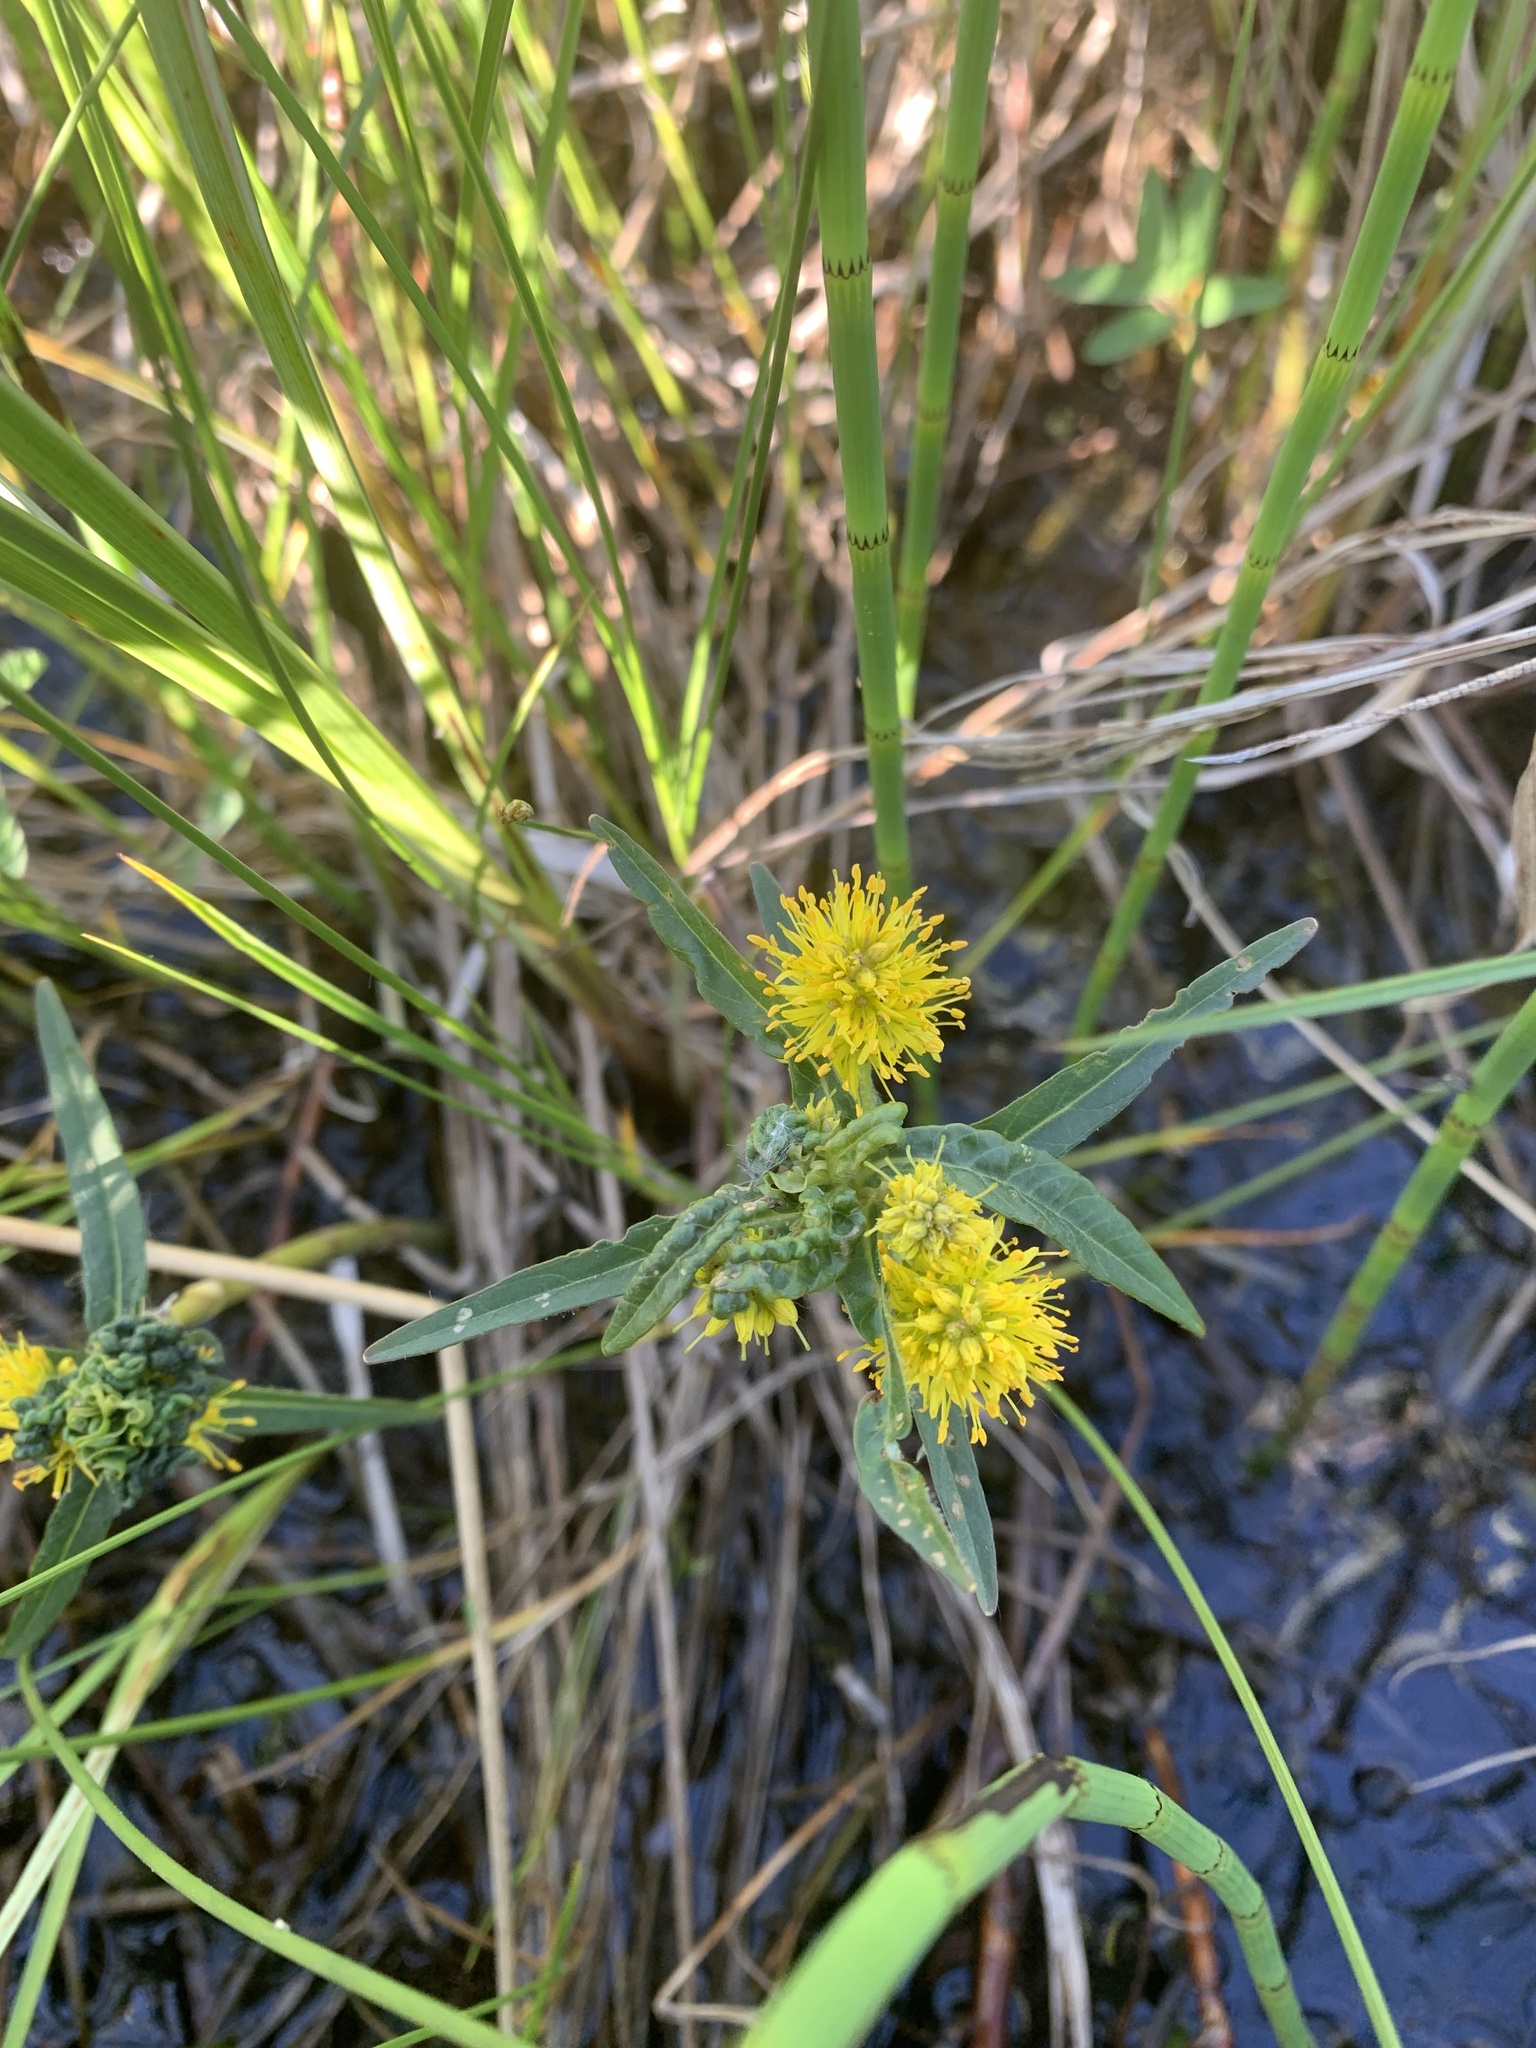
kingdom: Plantae
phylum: Tracheophyta
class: Magnoliopsida
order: Ericales
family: Primulaceae
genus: Lysimachia
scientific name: Lysimachia thyrsiflora
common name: Tufted loosestrife
